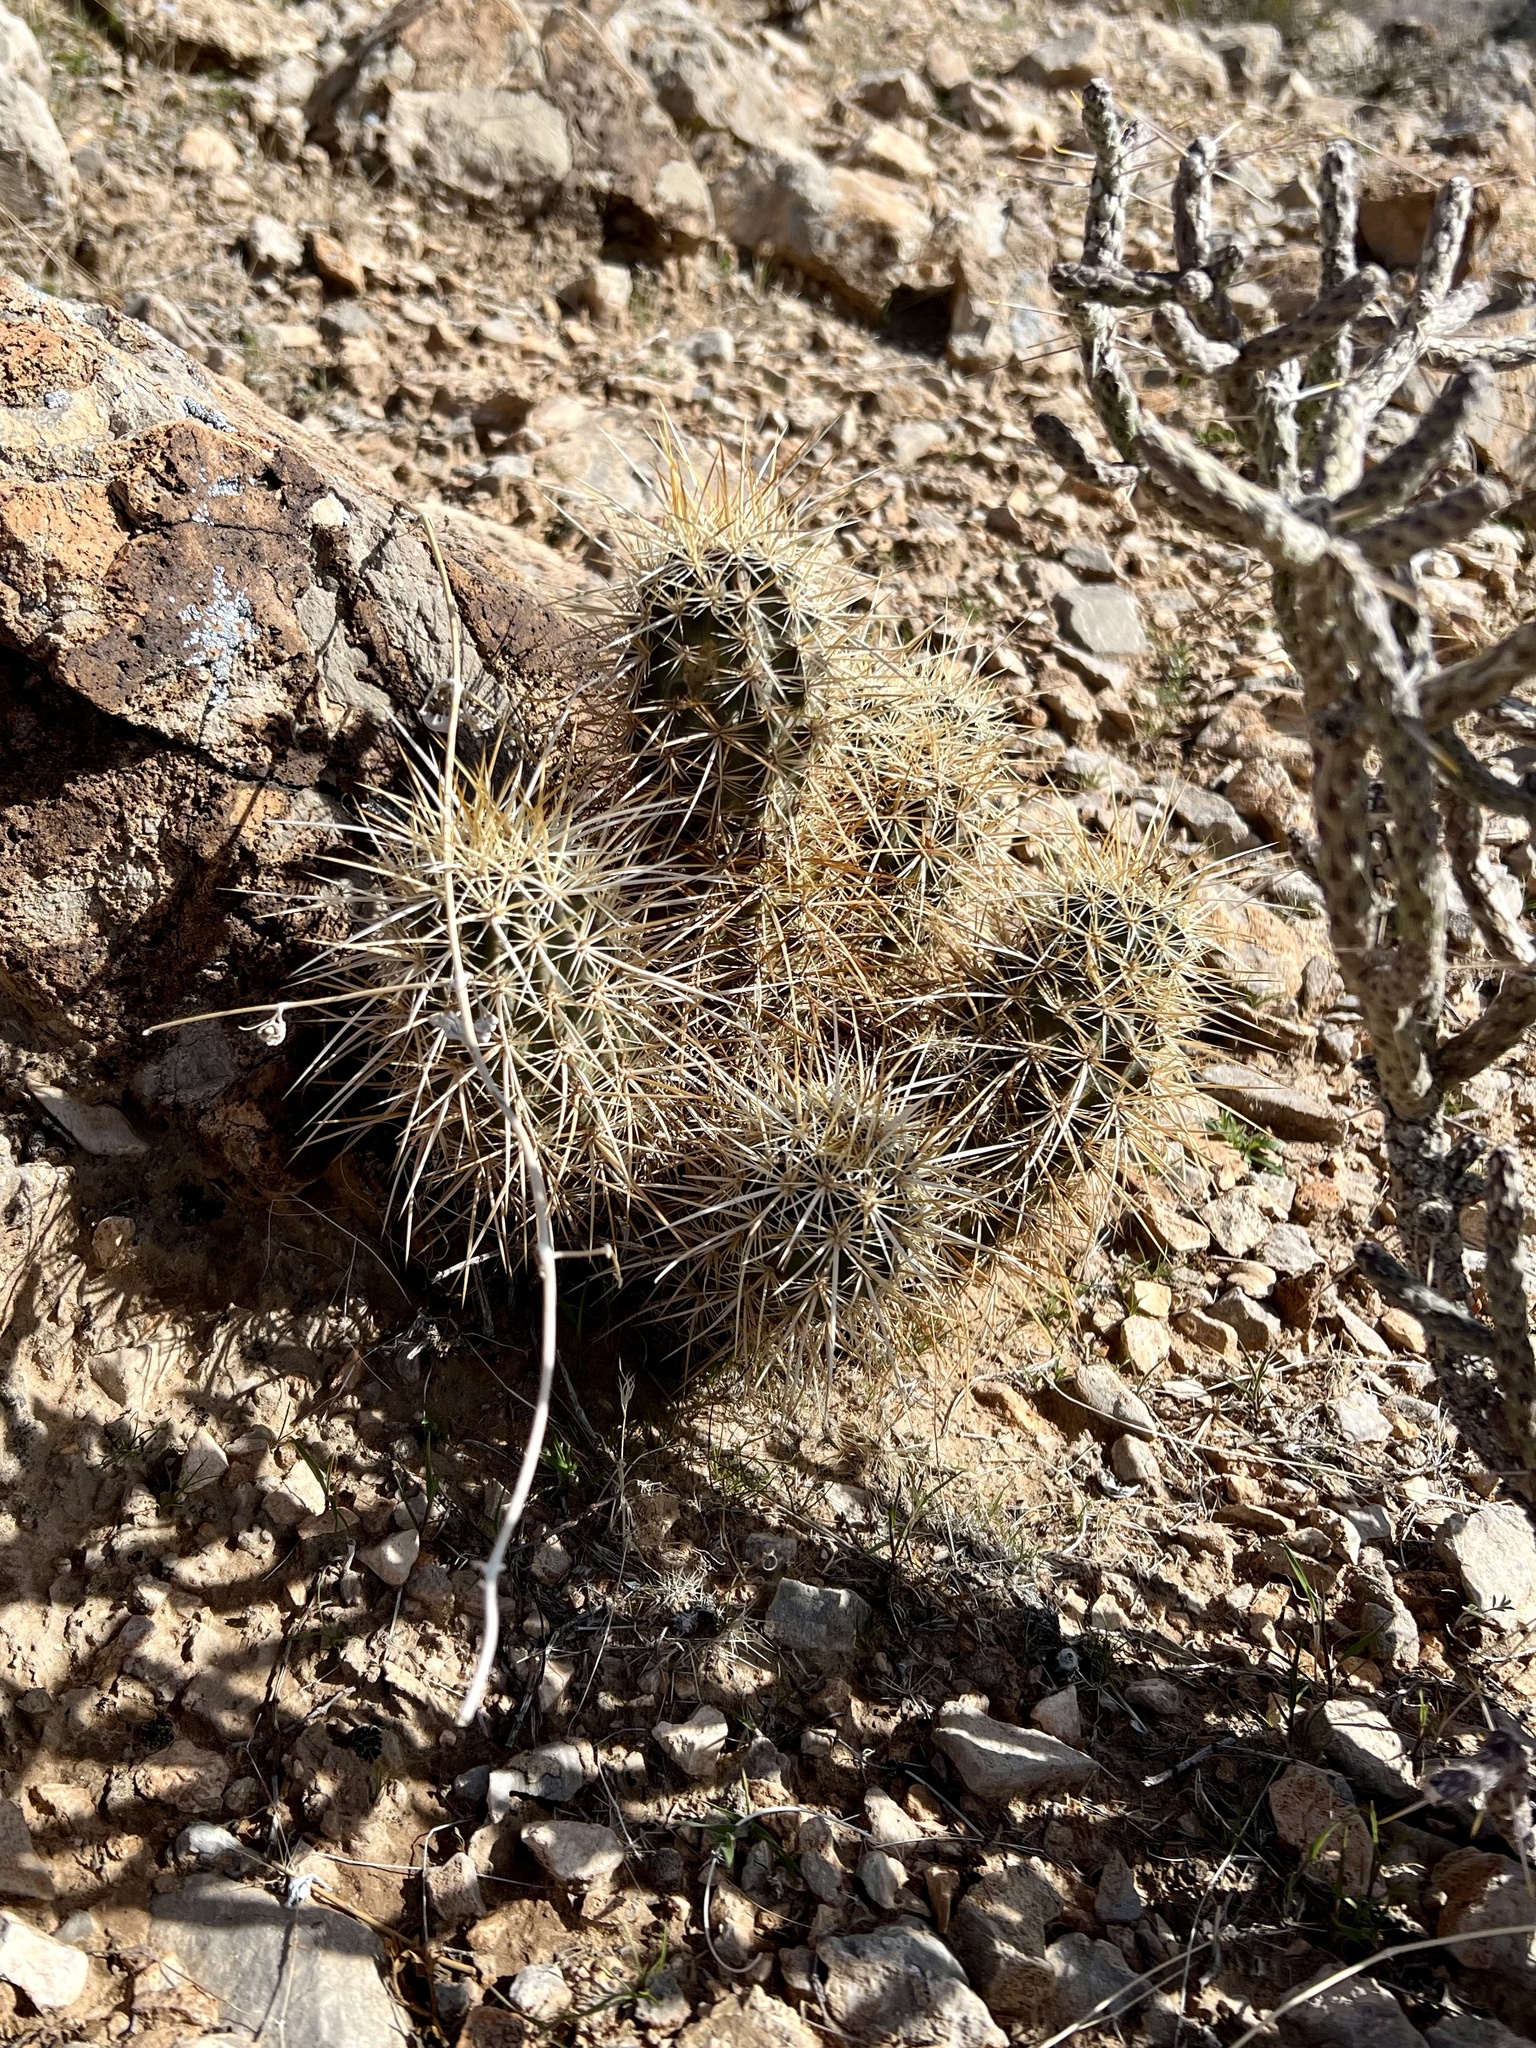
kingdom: Plantae
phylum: Tracheophyta
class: Magnoliopsida
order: Caryophyllales
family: Cactaceae
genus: Echinocereus
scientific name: Echinocereus engelmannii
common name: Engelmann's hedgehog cactus
